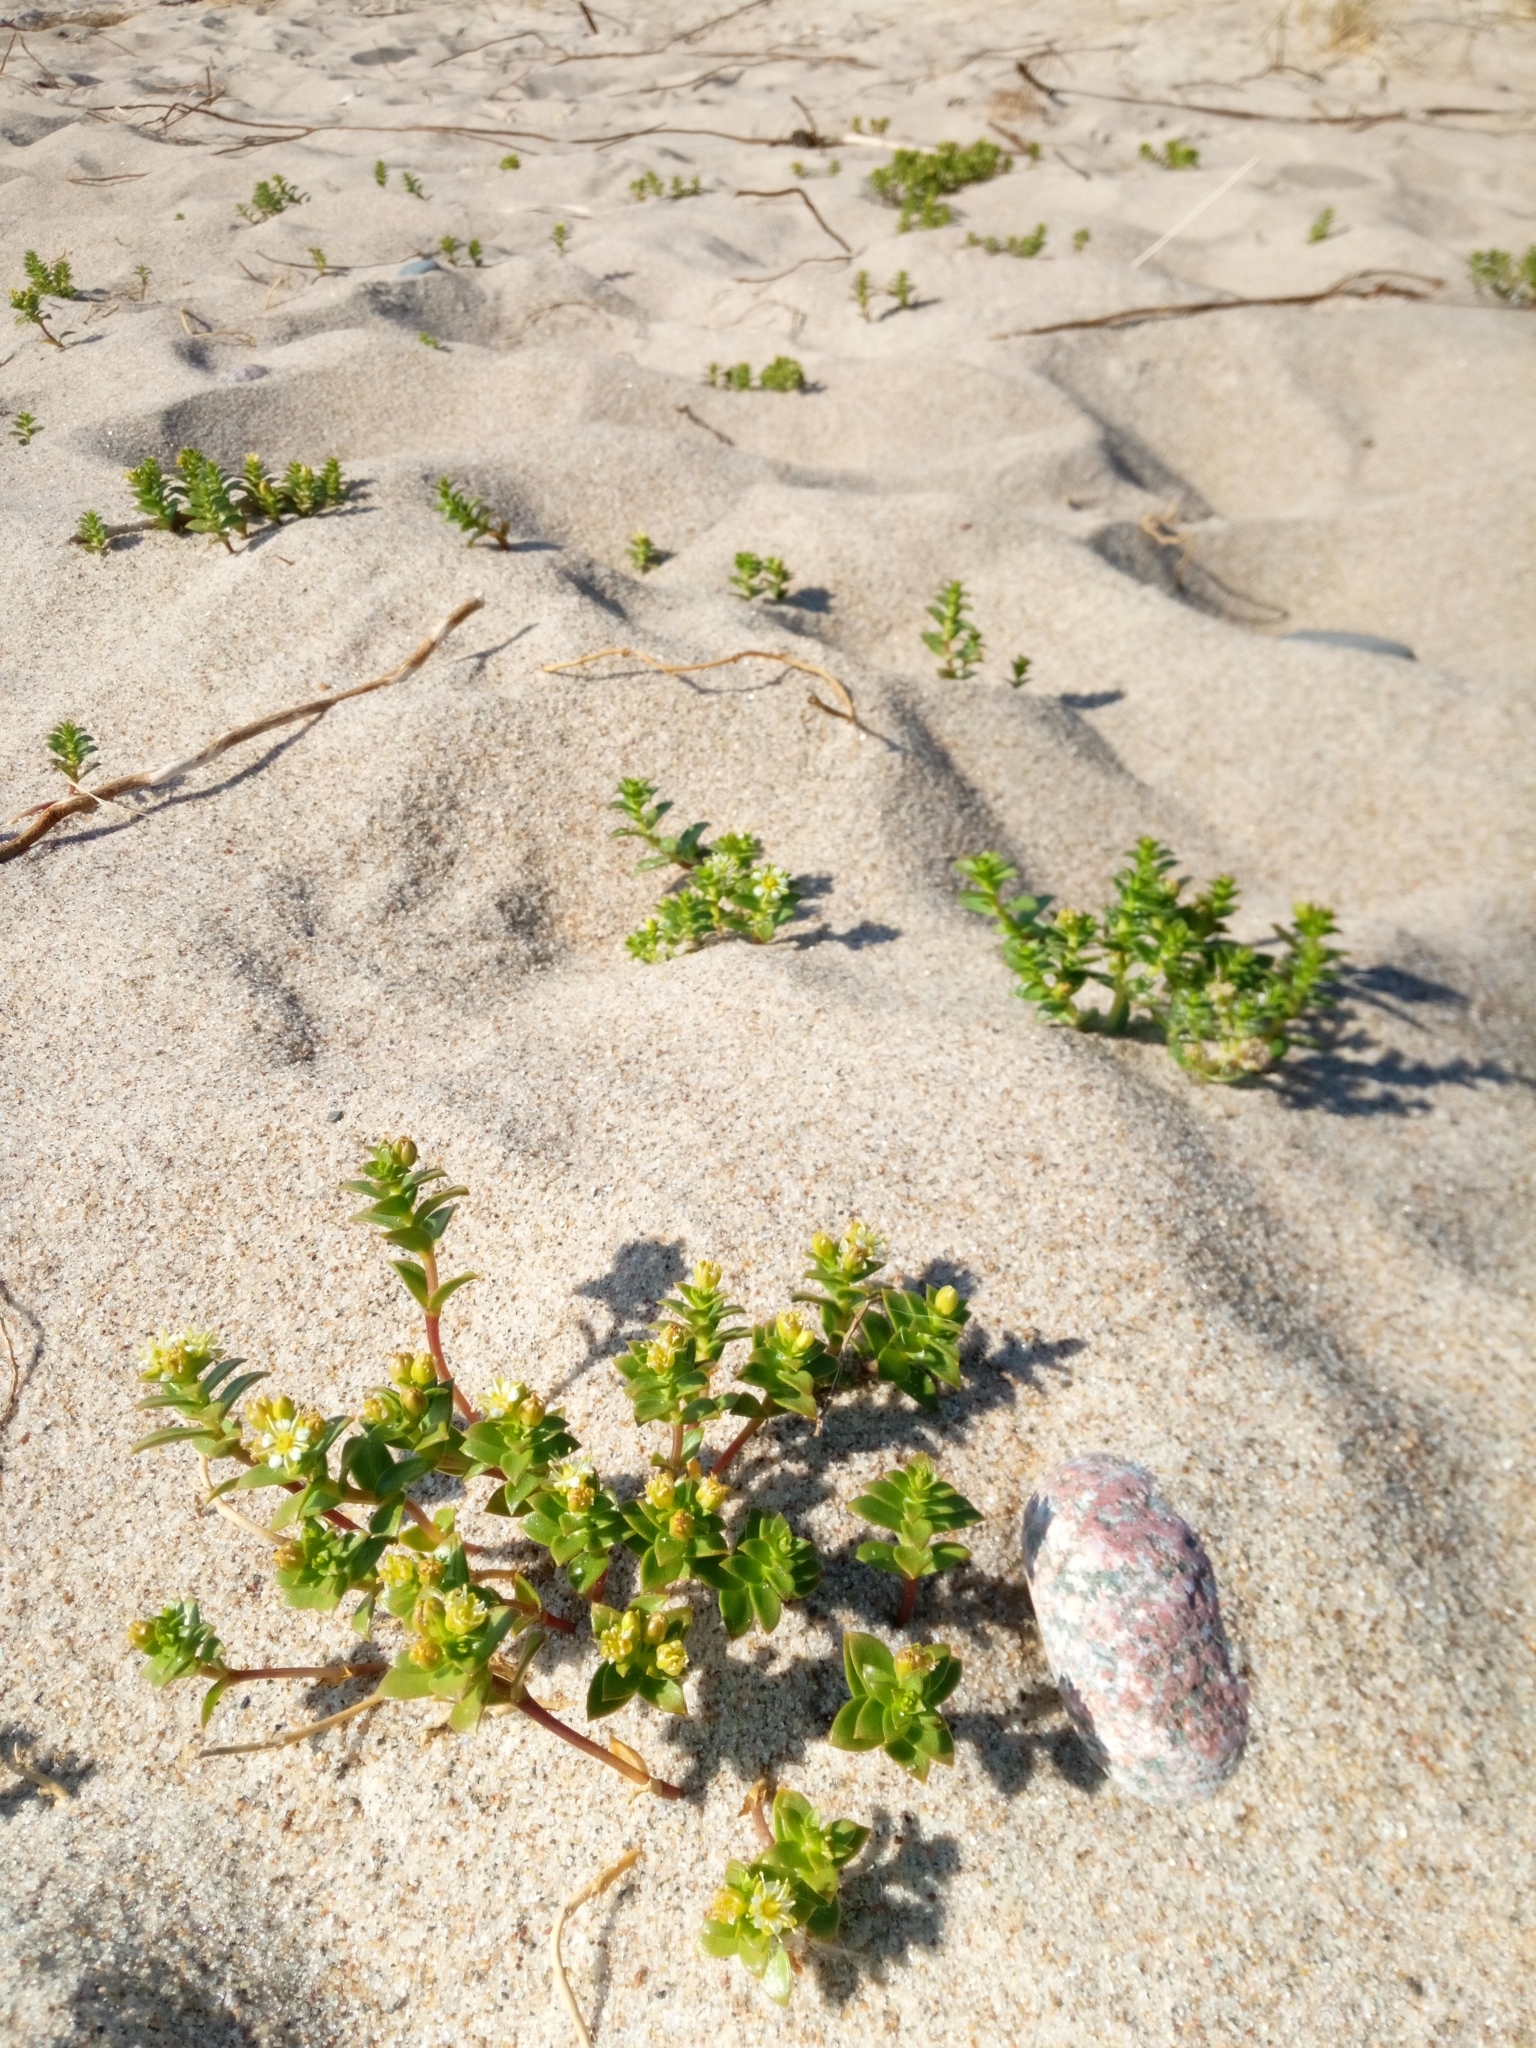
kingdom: Plantae
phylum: Tracheophyta
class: Magnoliopsida
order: Caryophyllales
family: Caryophyllaceae
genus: Honckenya
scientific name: Honckenya peploides
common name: Sea sandwort
